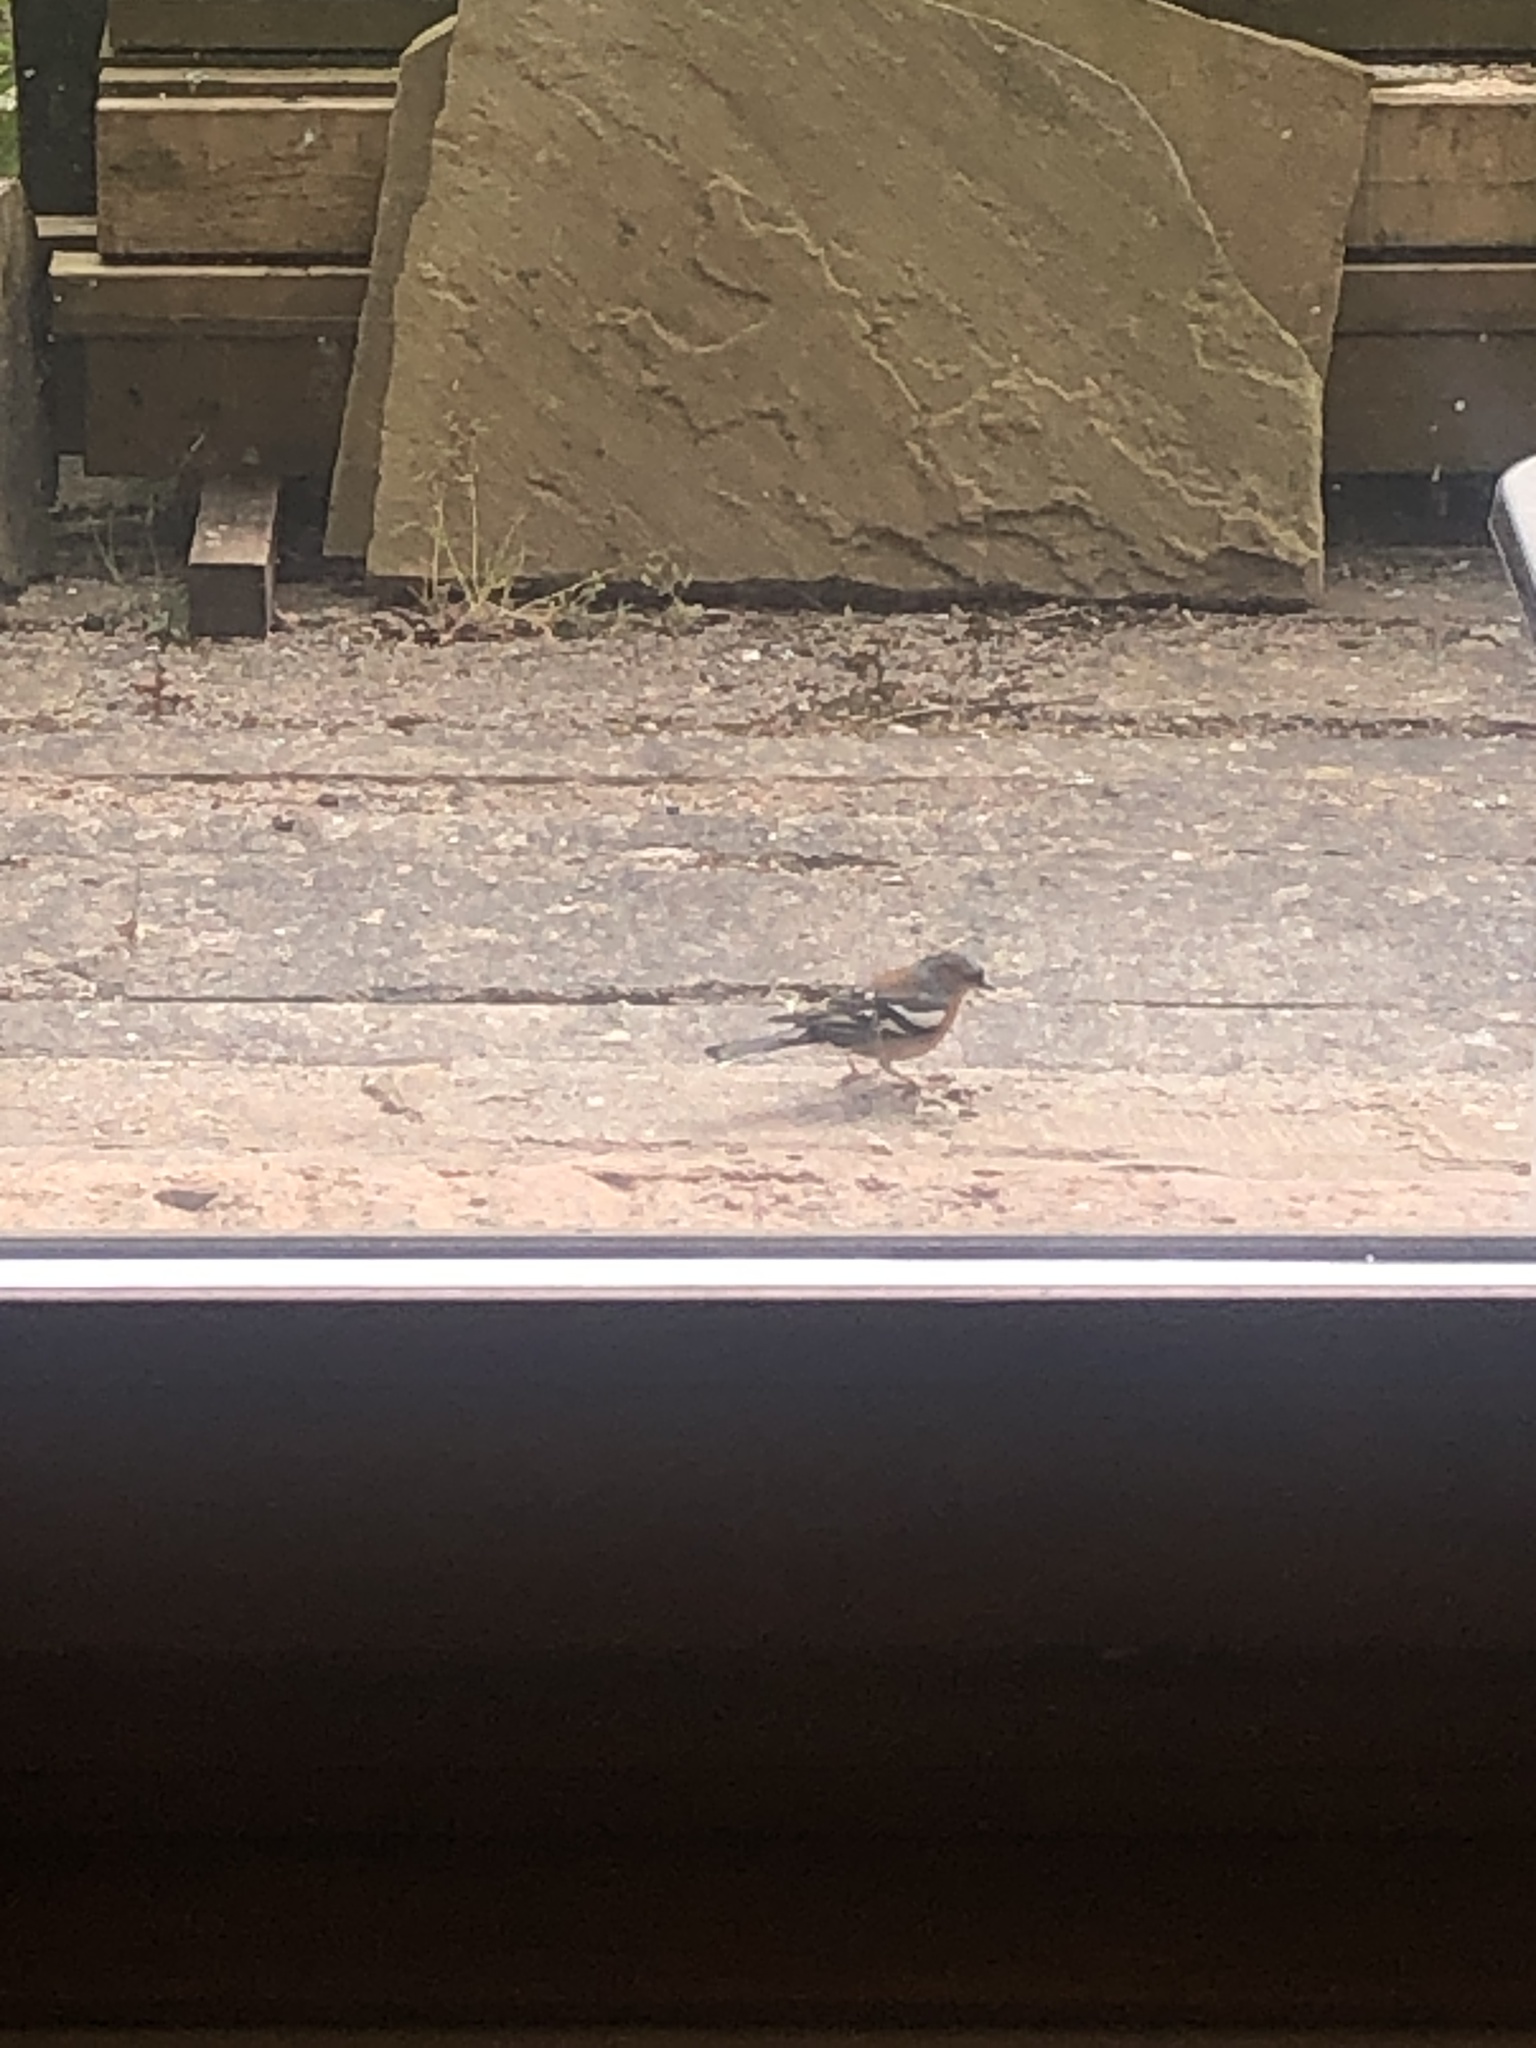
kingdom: Animalia
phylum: Chordata
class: Aves
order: Passeriformes
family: Fringillidae
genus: Fringilla
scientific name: Fringilla coelebs
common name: Common chaffinch
